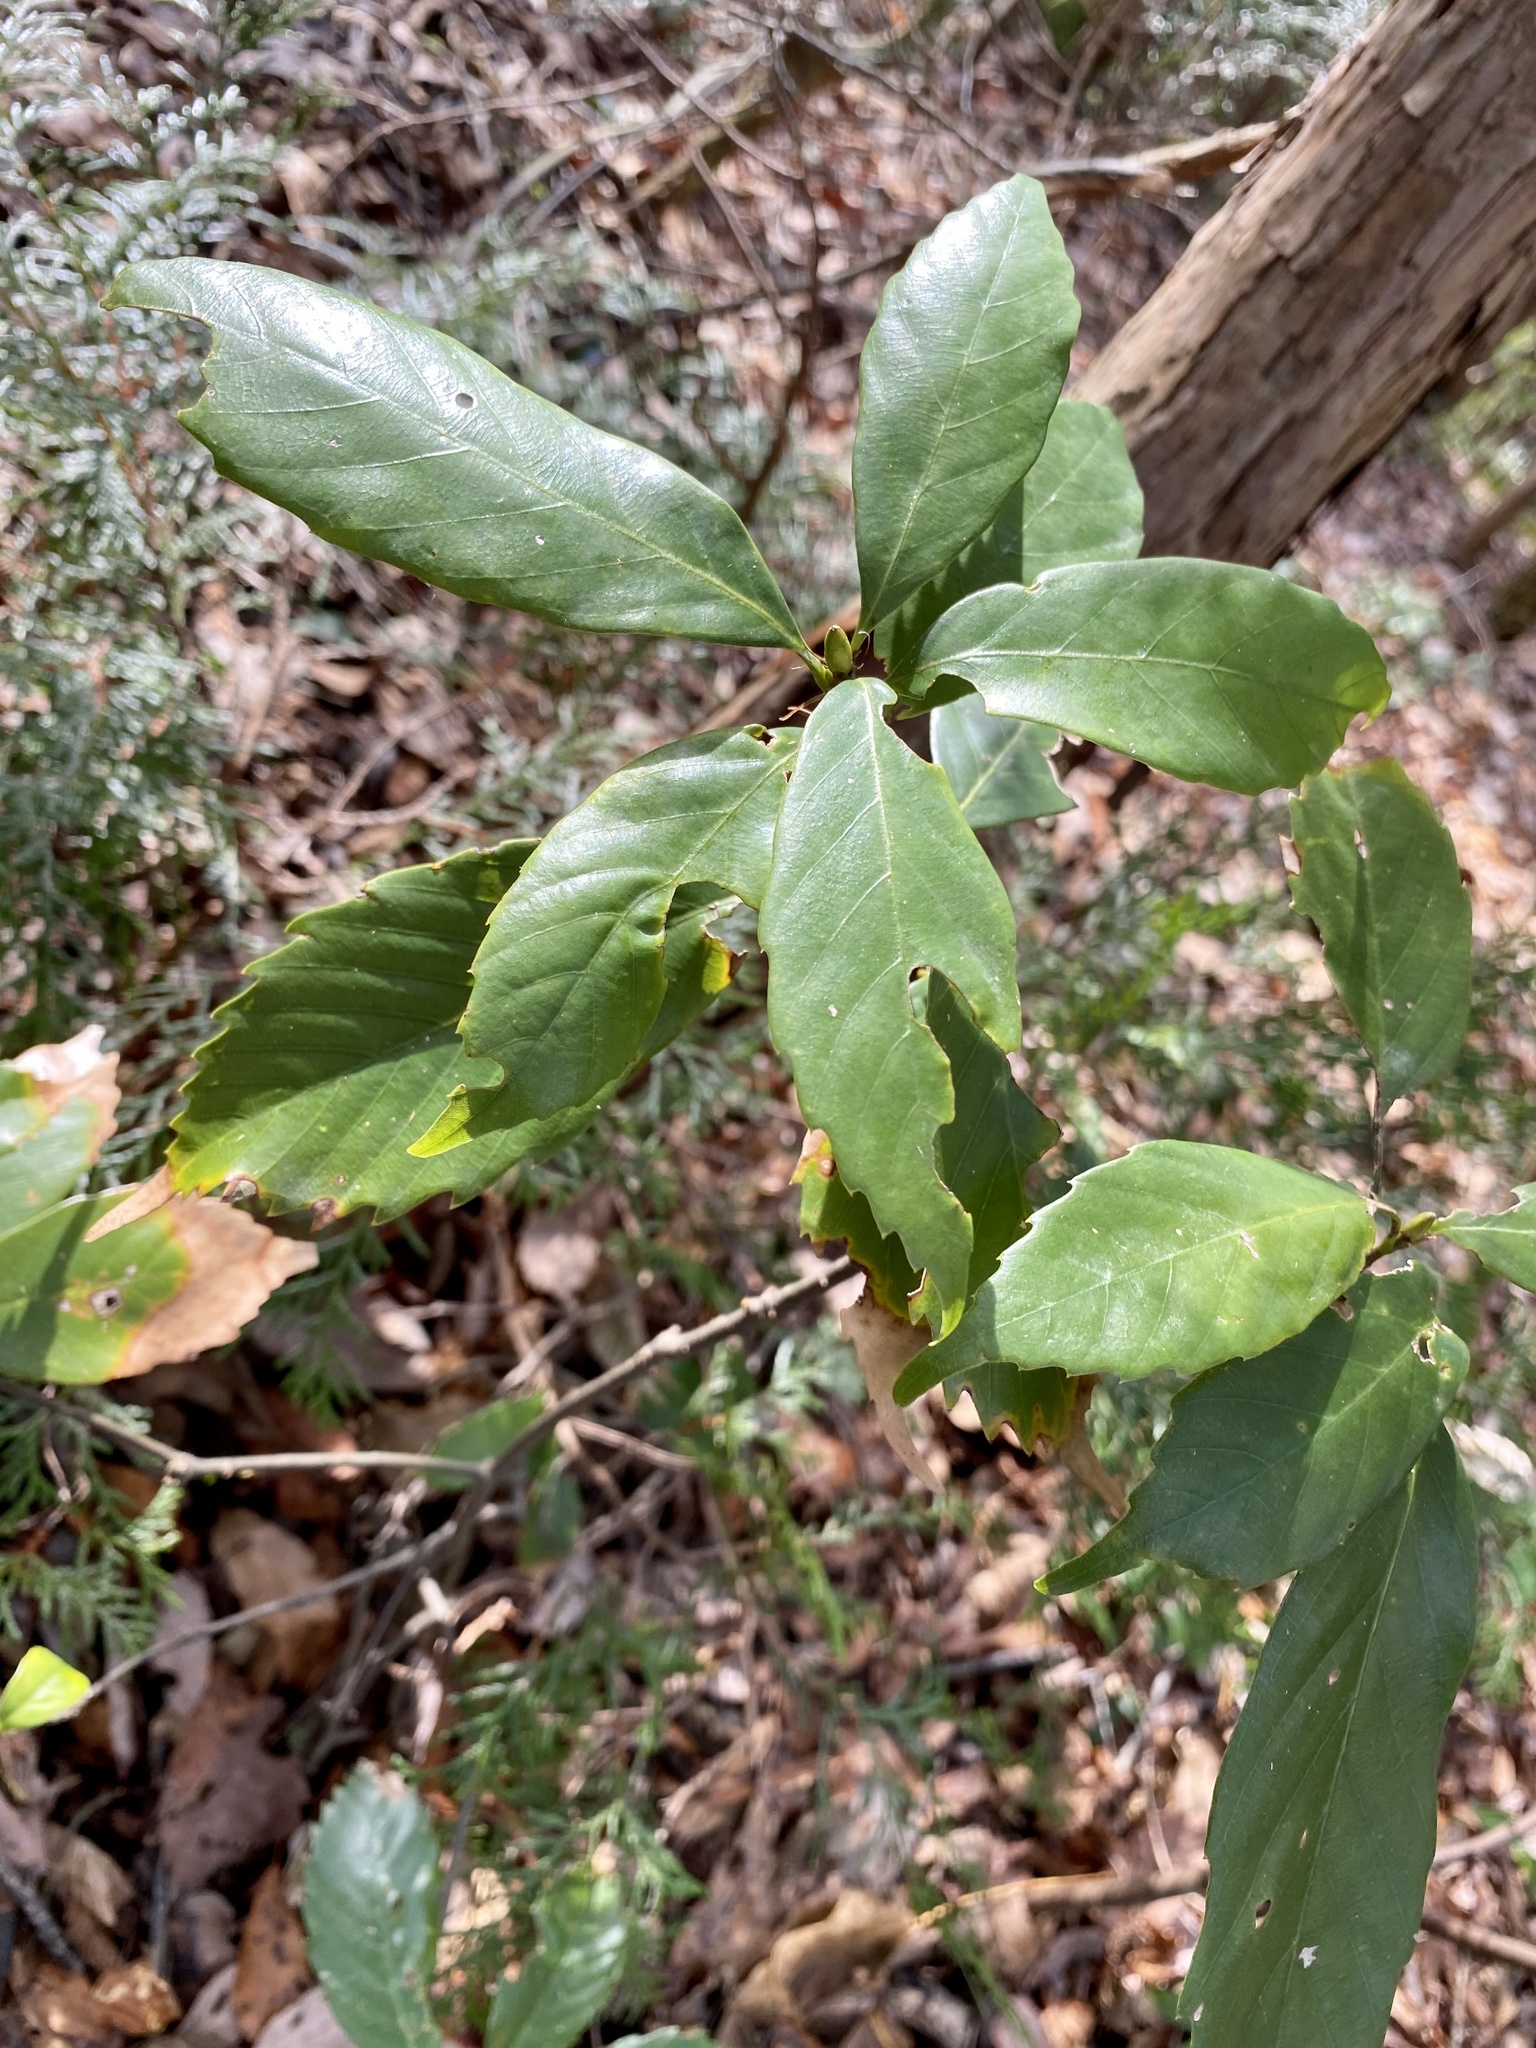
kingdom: Plantae
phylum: Tracheophyta
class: Magnoliopsida
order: Fagales
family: Fagaceae
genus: Quercus
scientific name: Quercus glauca
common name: Ring-cup oak
